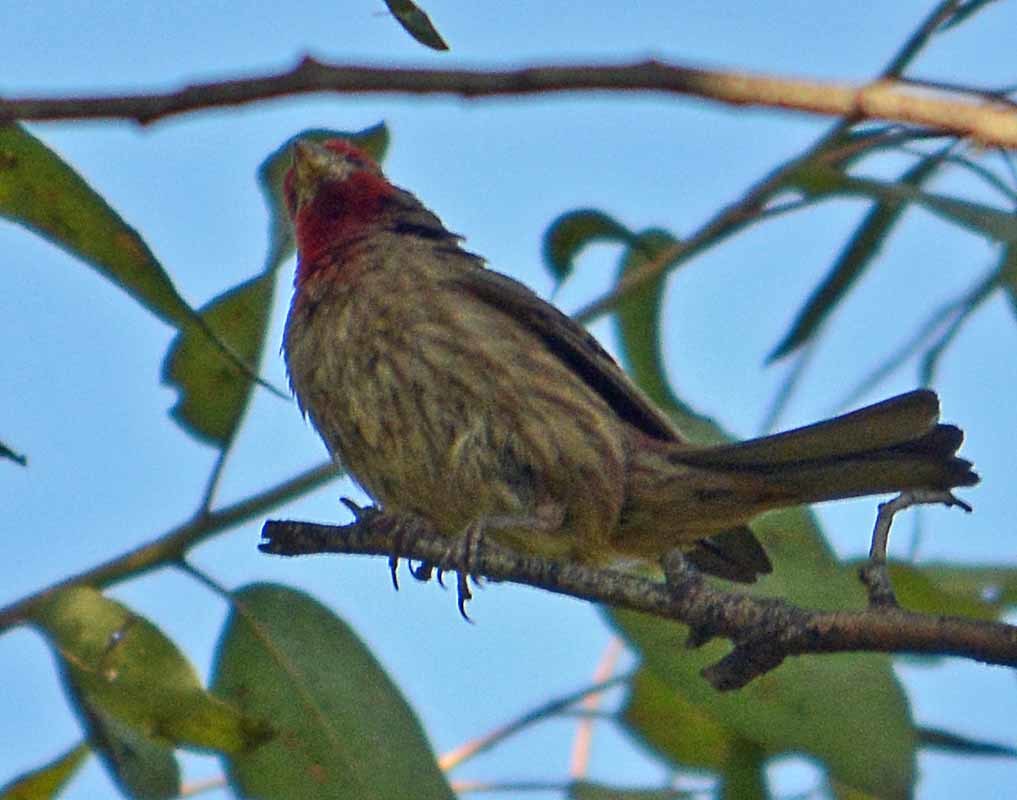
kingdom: Animalia
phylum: Chordata
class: Aves
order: Passeriformes
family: Fringillidae
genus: Haemorhous
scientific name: Haemorhous mexicanus
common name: House finch
